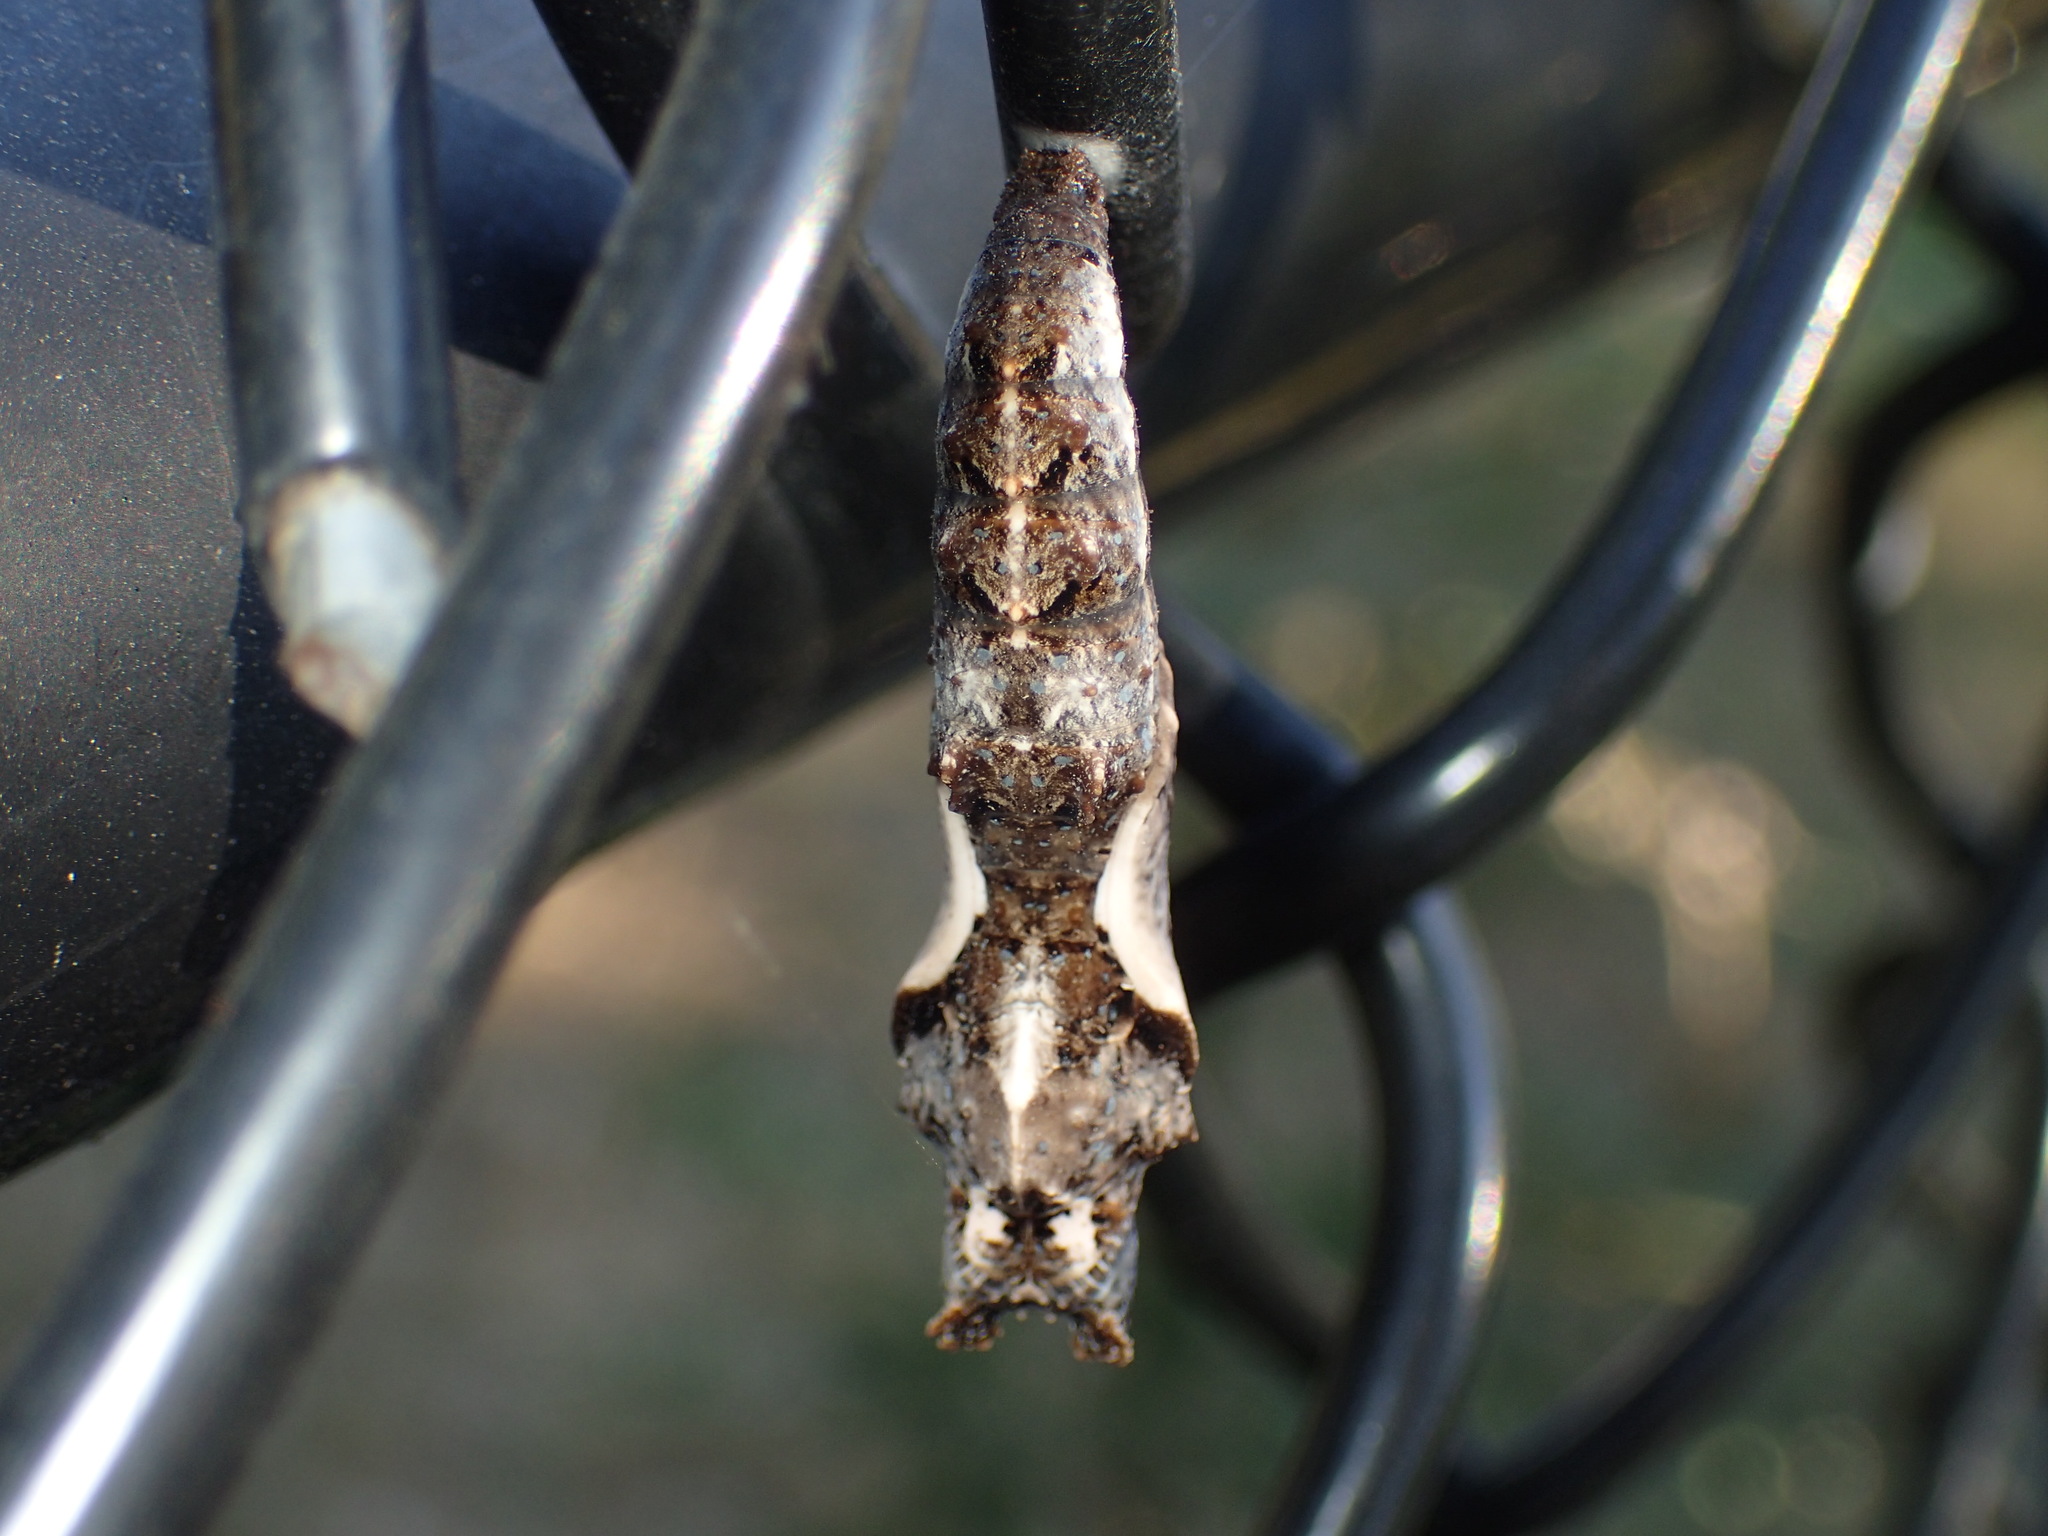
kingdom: Animalia
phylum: Arthropoda
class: Insecta
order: Lepidoptera
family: Nymphalidae
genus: Dione
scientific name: Dione vanillae
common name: Gulf fritillary
